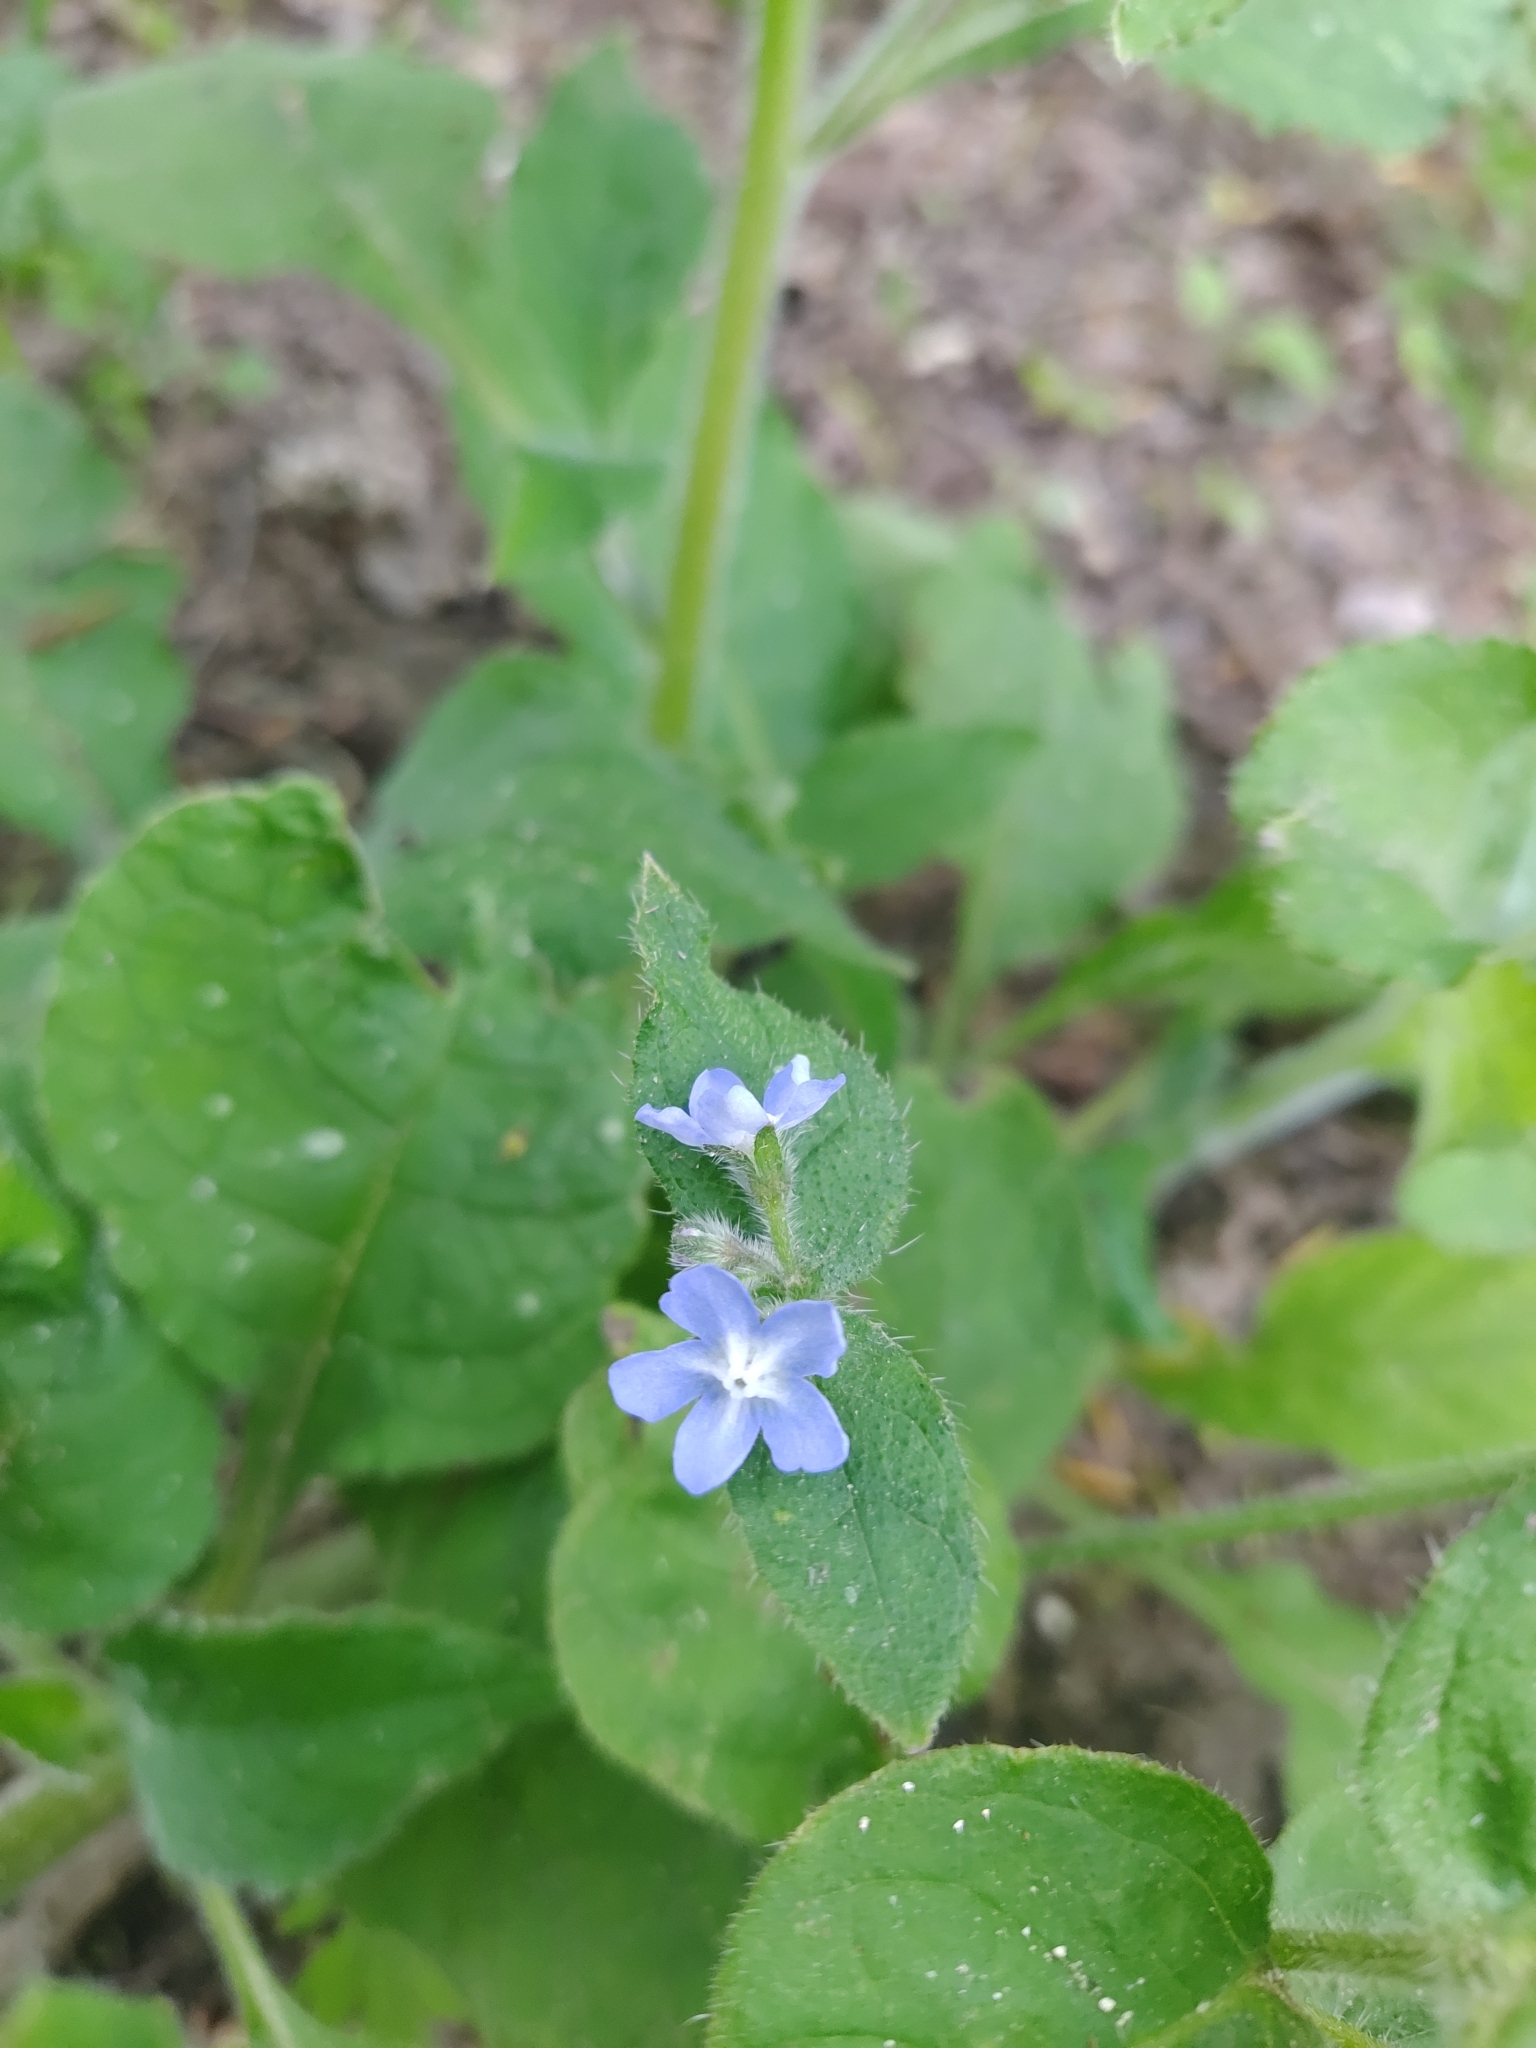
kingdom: Plantae
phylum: Tracheophyta
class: Magnoliopsida
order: Boraginales
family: Boraginaceae
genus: Pentaglottis
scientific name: Pentaglottis sempervirens
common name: Green alkanet
